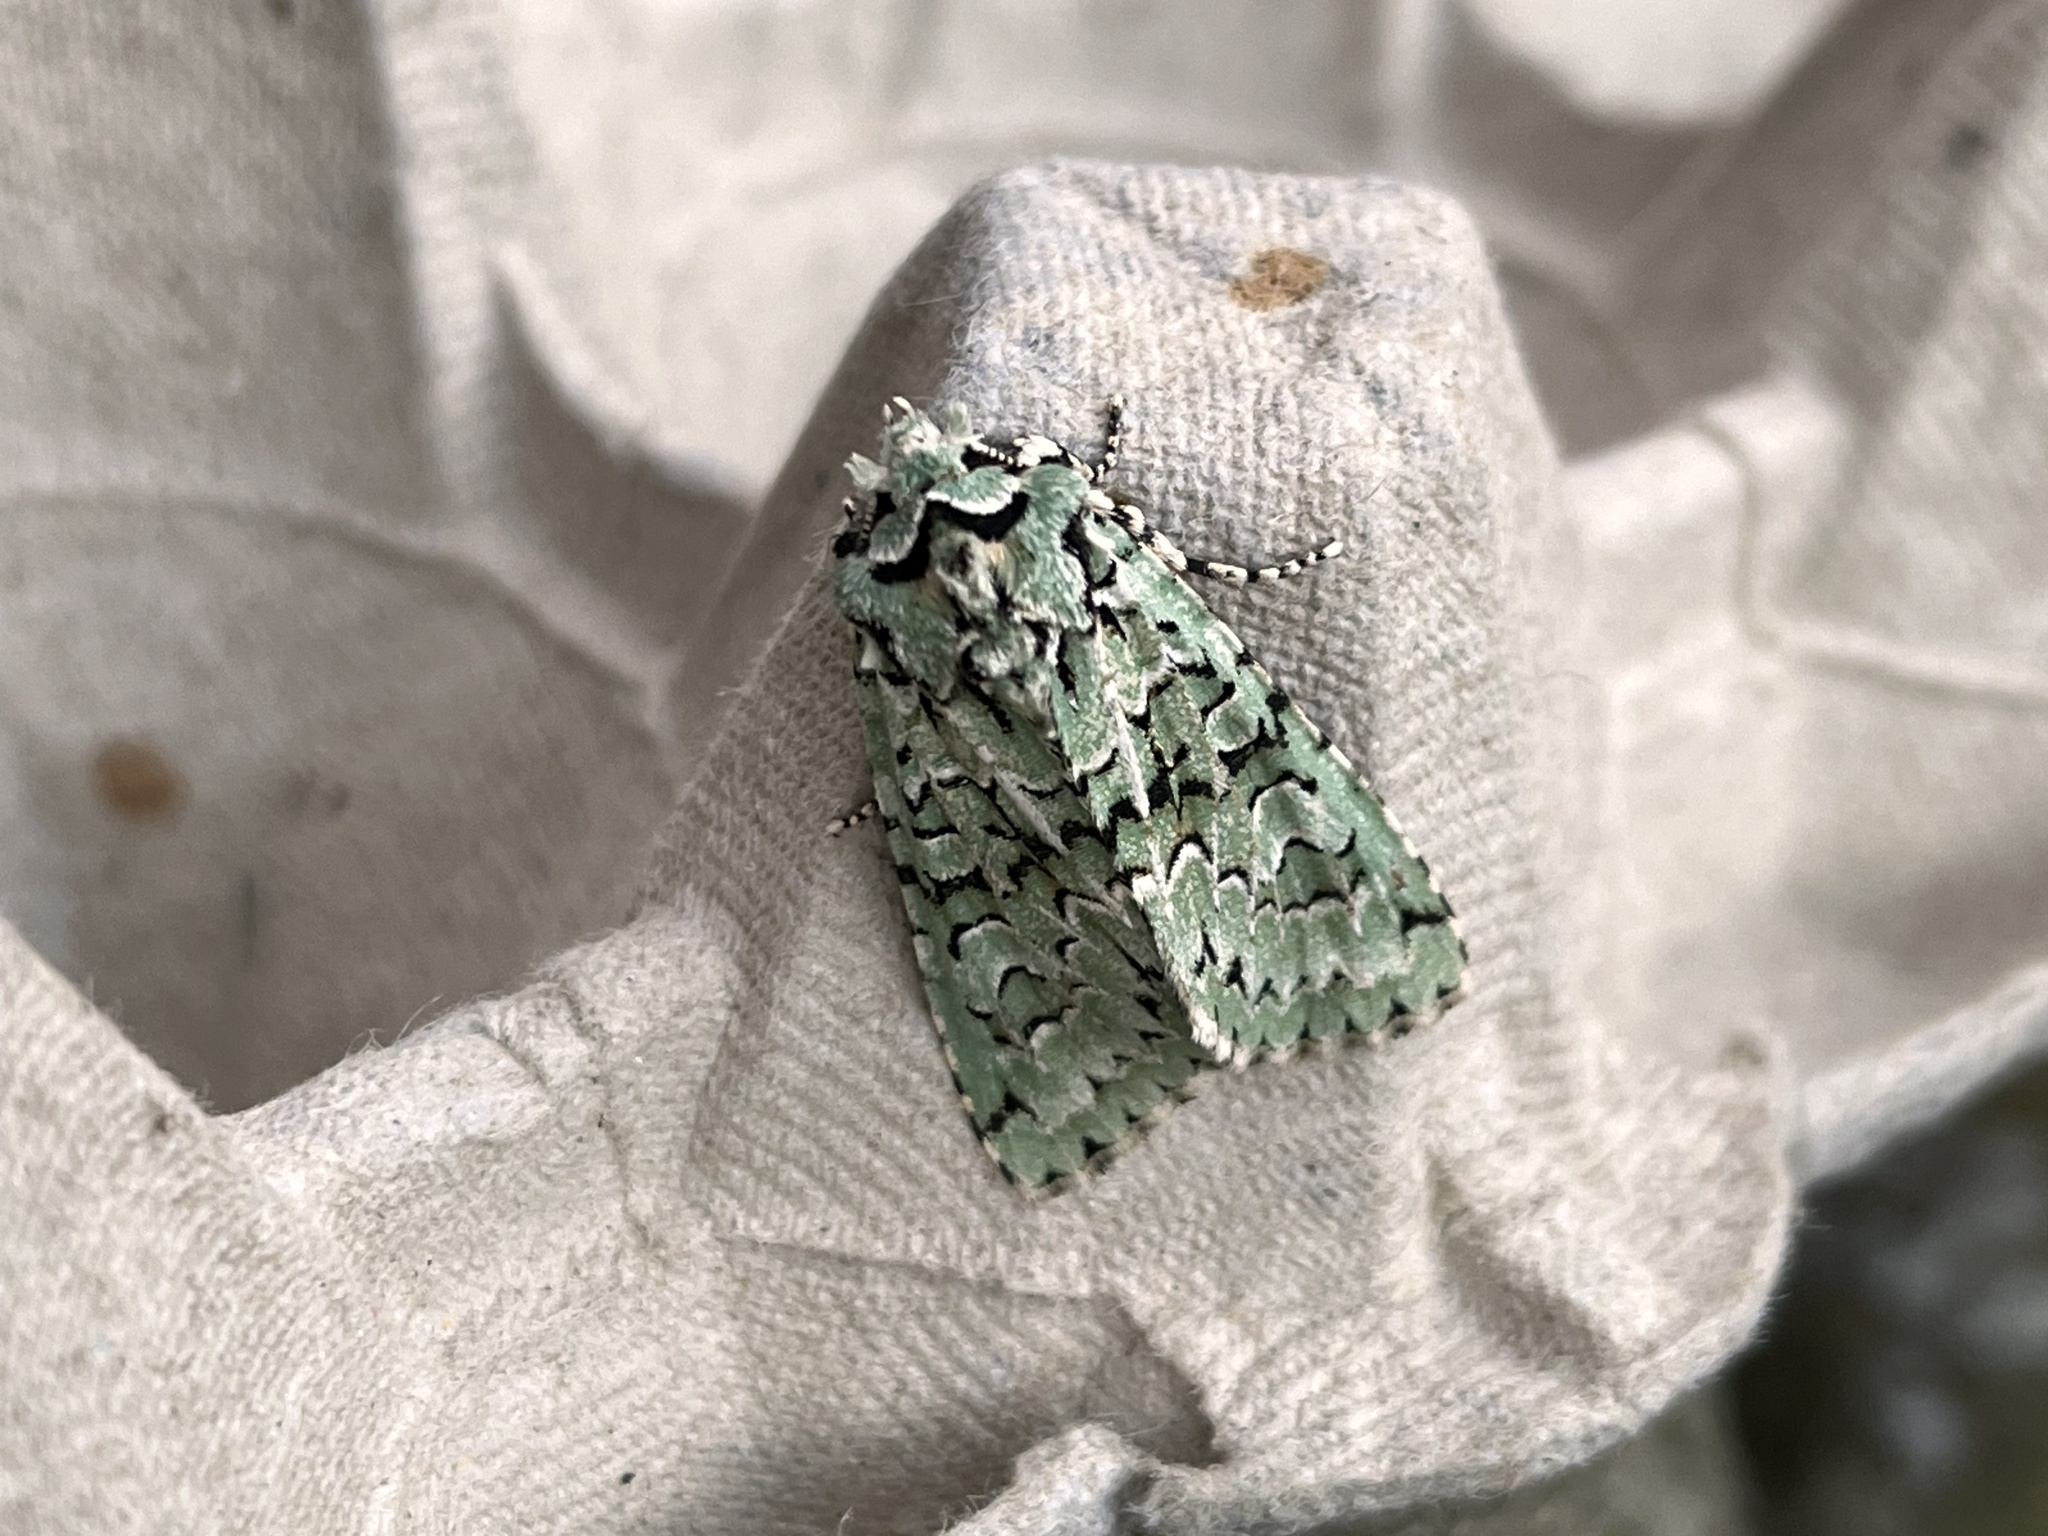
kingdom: Animalia
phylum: Arthropoda
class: Insecta
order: Lepidoptera
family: Noctuidae
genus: Griposia
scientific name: Griposia aprilina
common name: Merveille du jour
